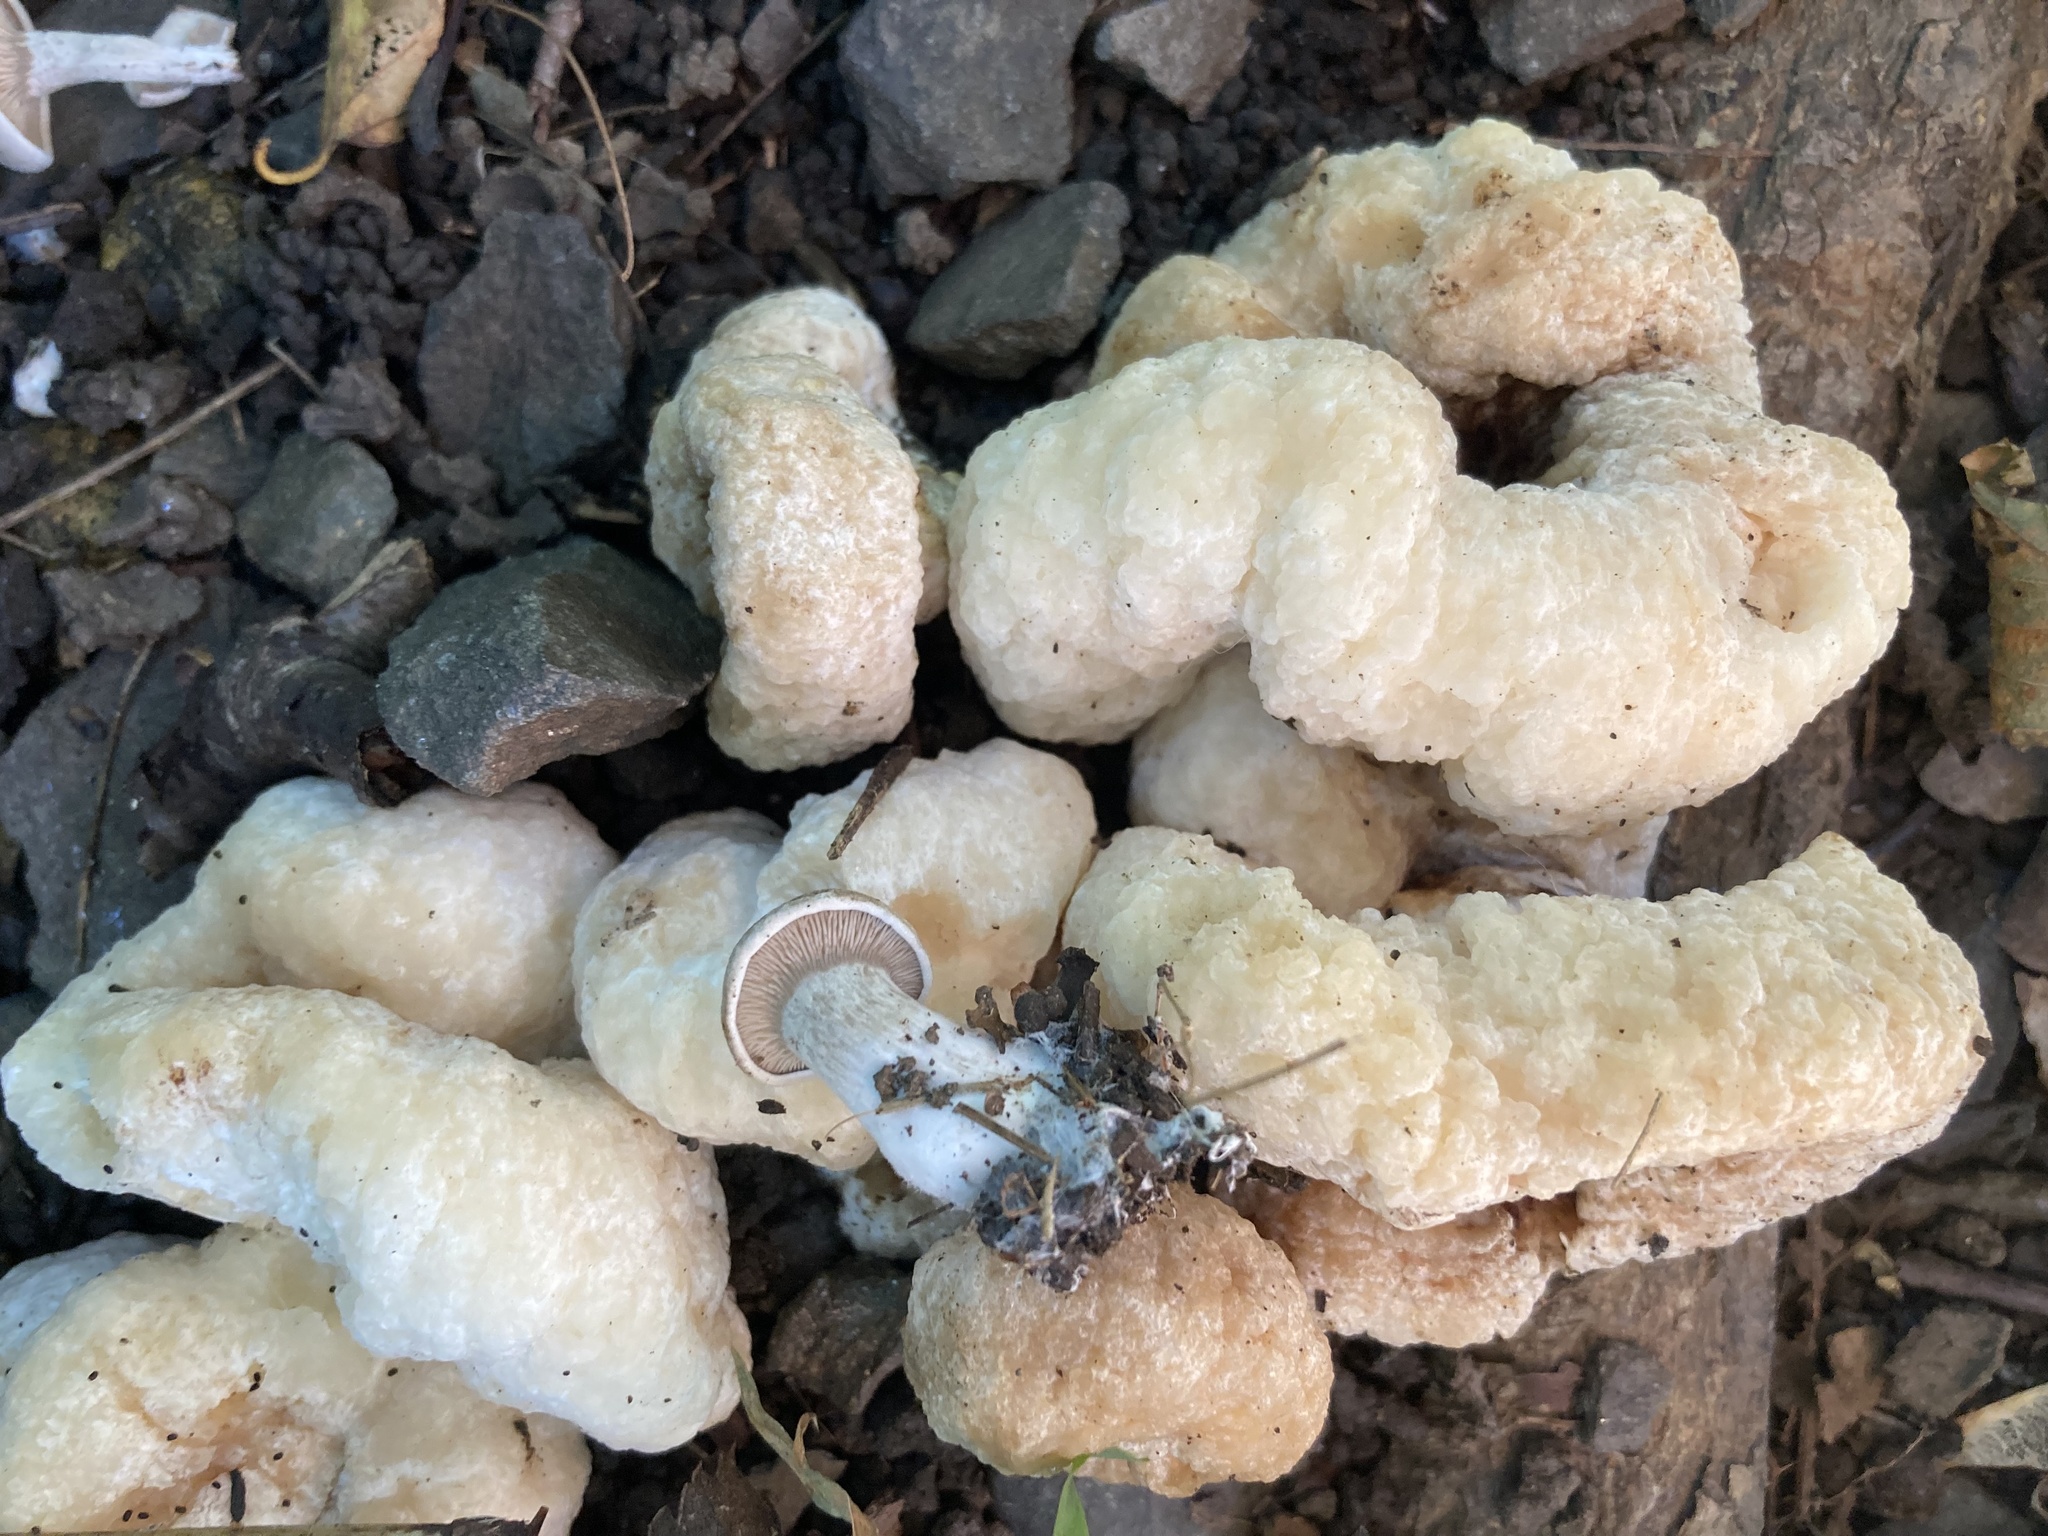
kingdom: Fungi
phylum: Basidiomycota
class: Agaricomycetes
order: Agaricales
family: Entolomataceae
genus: Entoloma
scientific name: Entoloma abortivum
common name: Aborted entoloma
